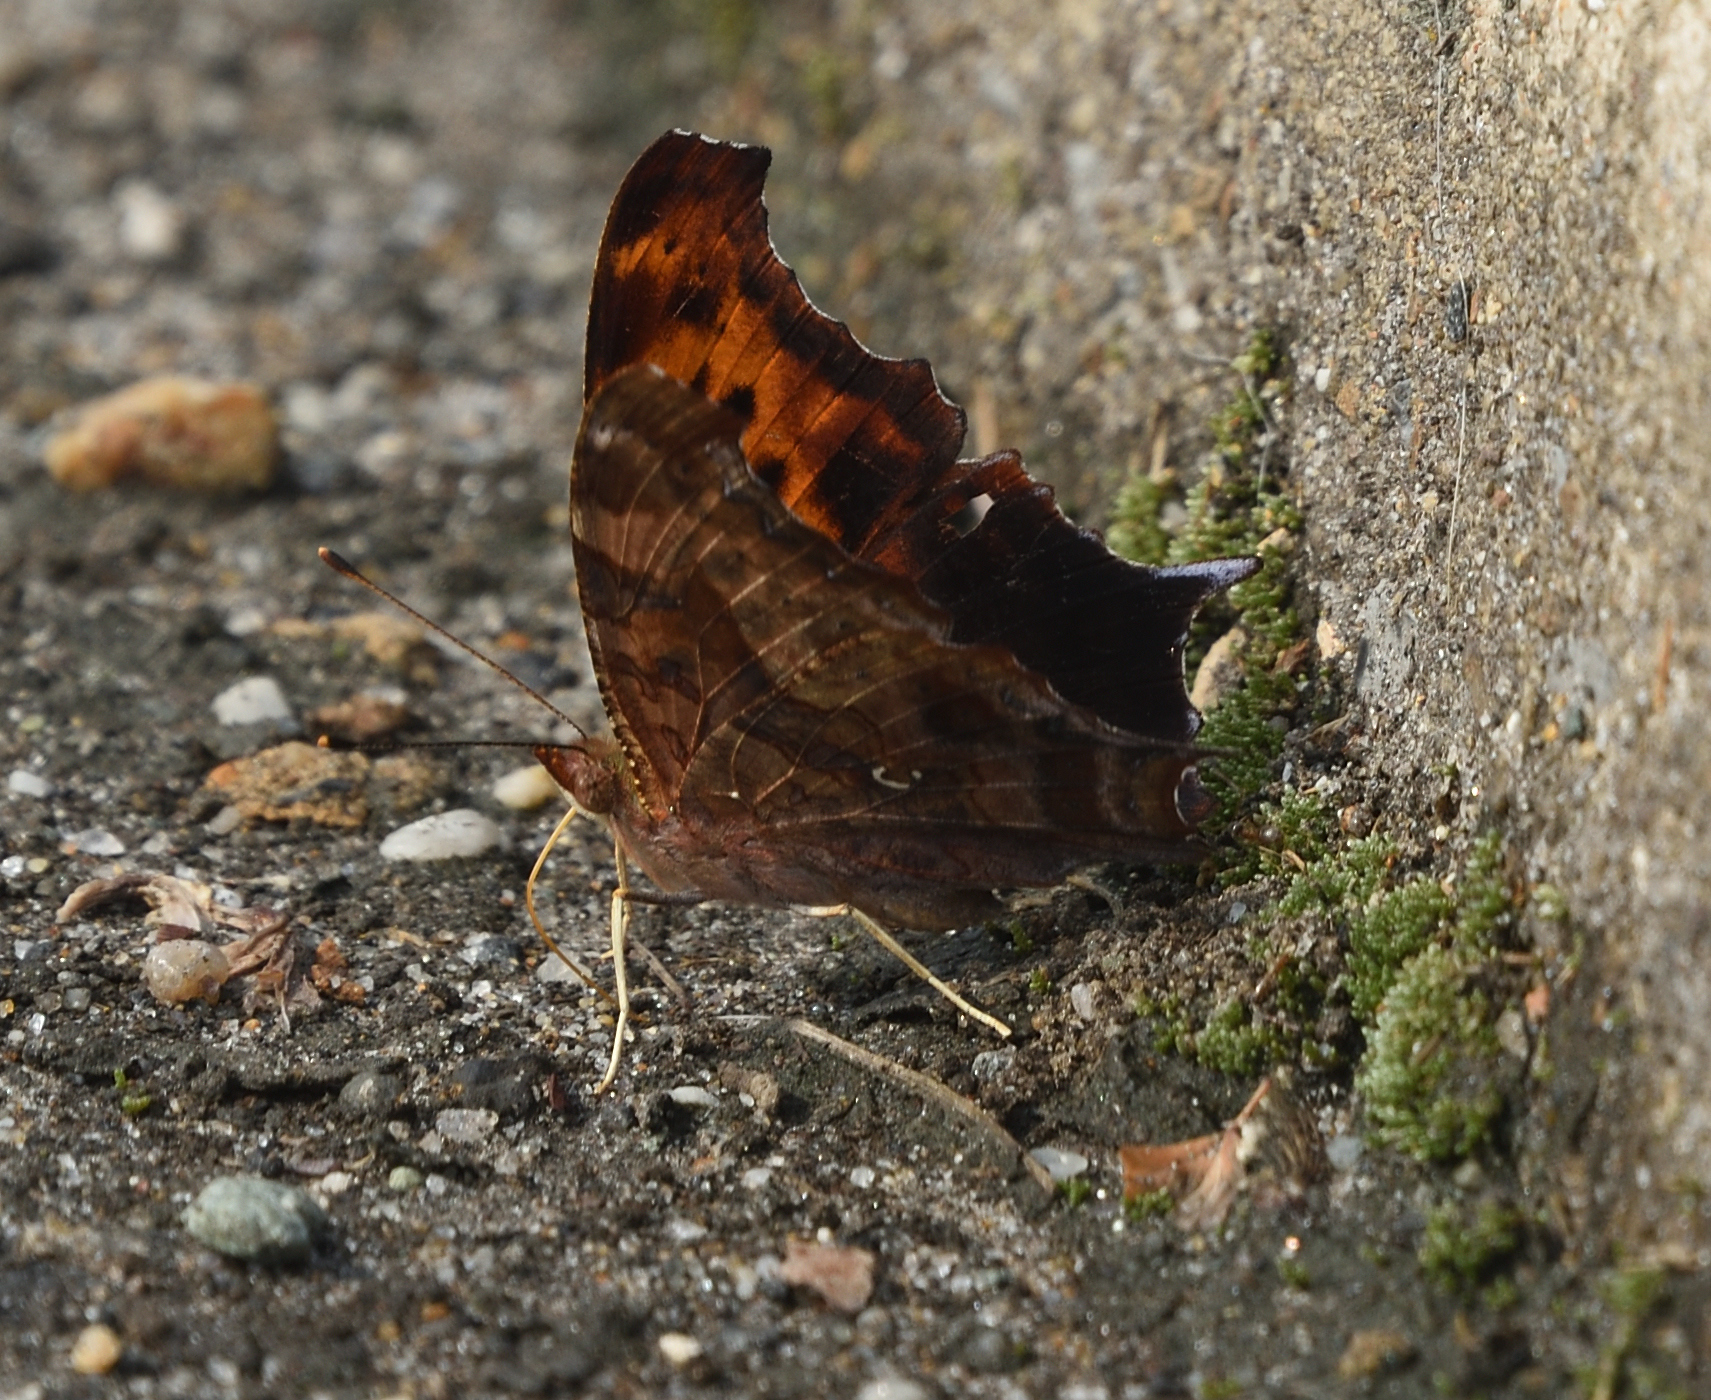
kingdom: Animalia
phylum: Arthropoda
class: Insecta
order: Lepidoptera
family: Nymphalidae
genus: Polygonia
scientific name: Polygonia interrogationis
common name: Question mark
